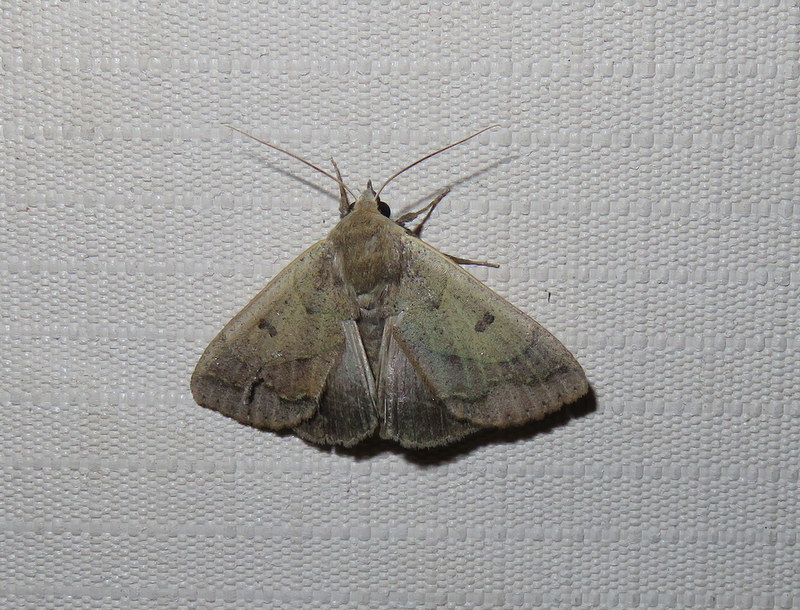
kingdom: Animalia
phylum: Arthropoda
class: Insecta
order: Lepidoptera
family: Erebidae
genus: Ophiusa
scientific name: Ophiusa mejanesi
